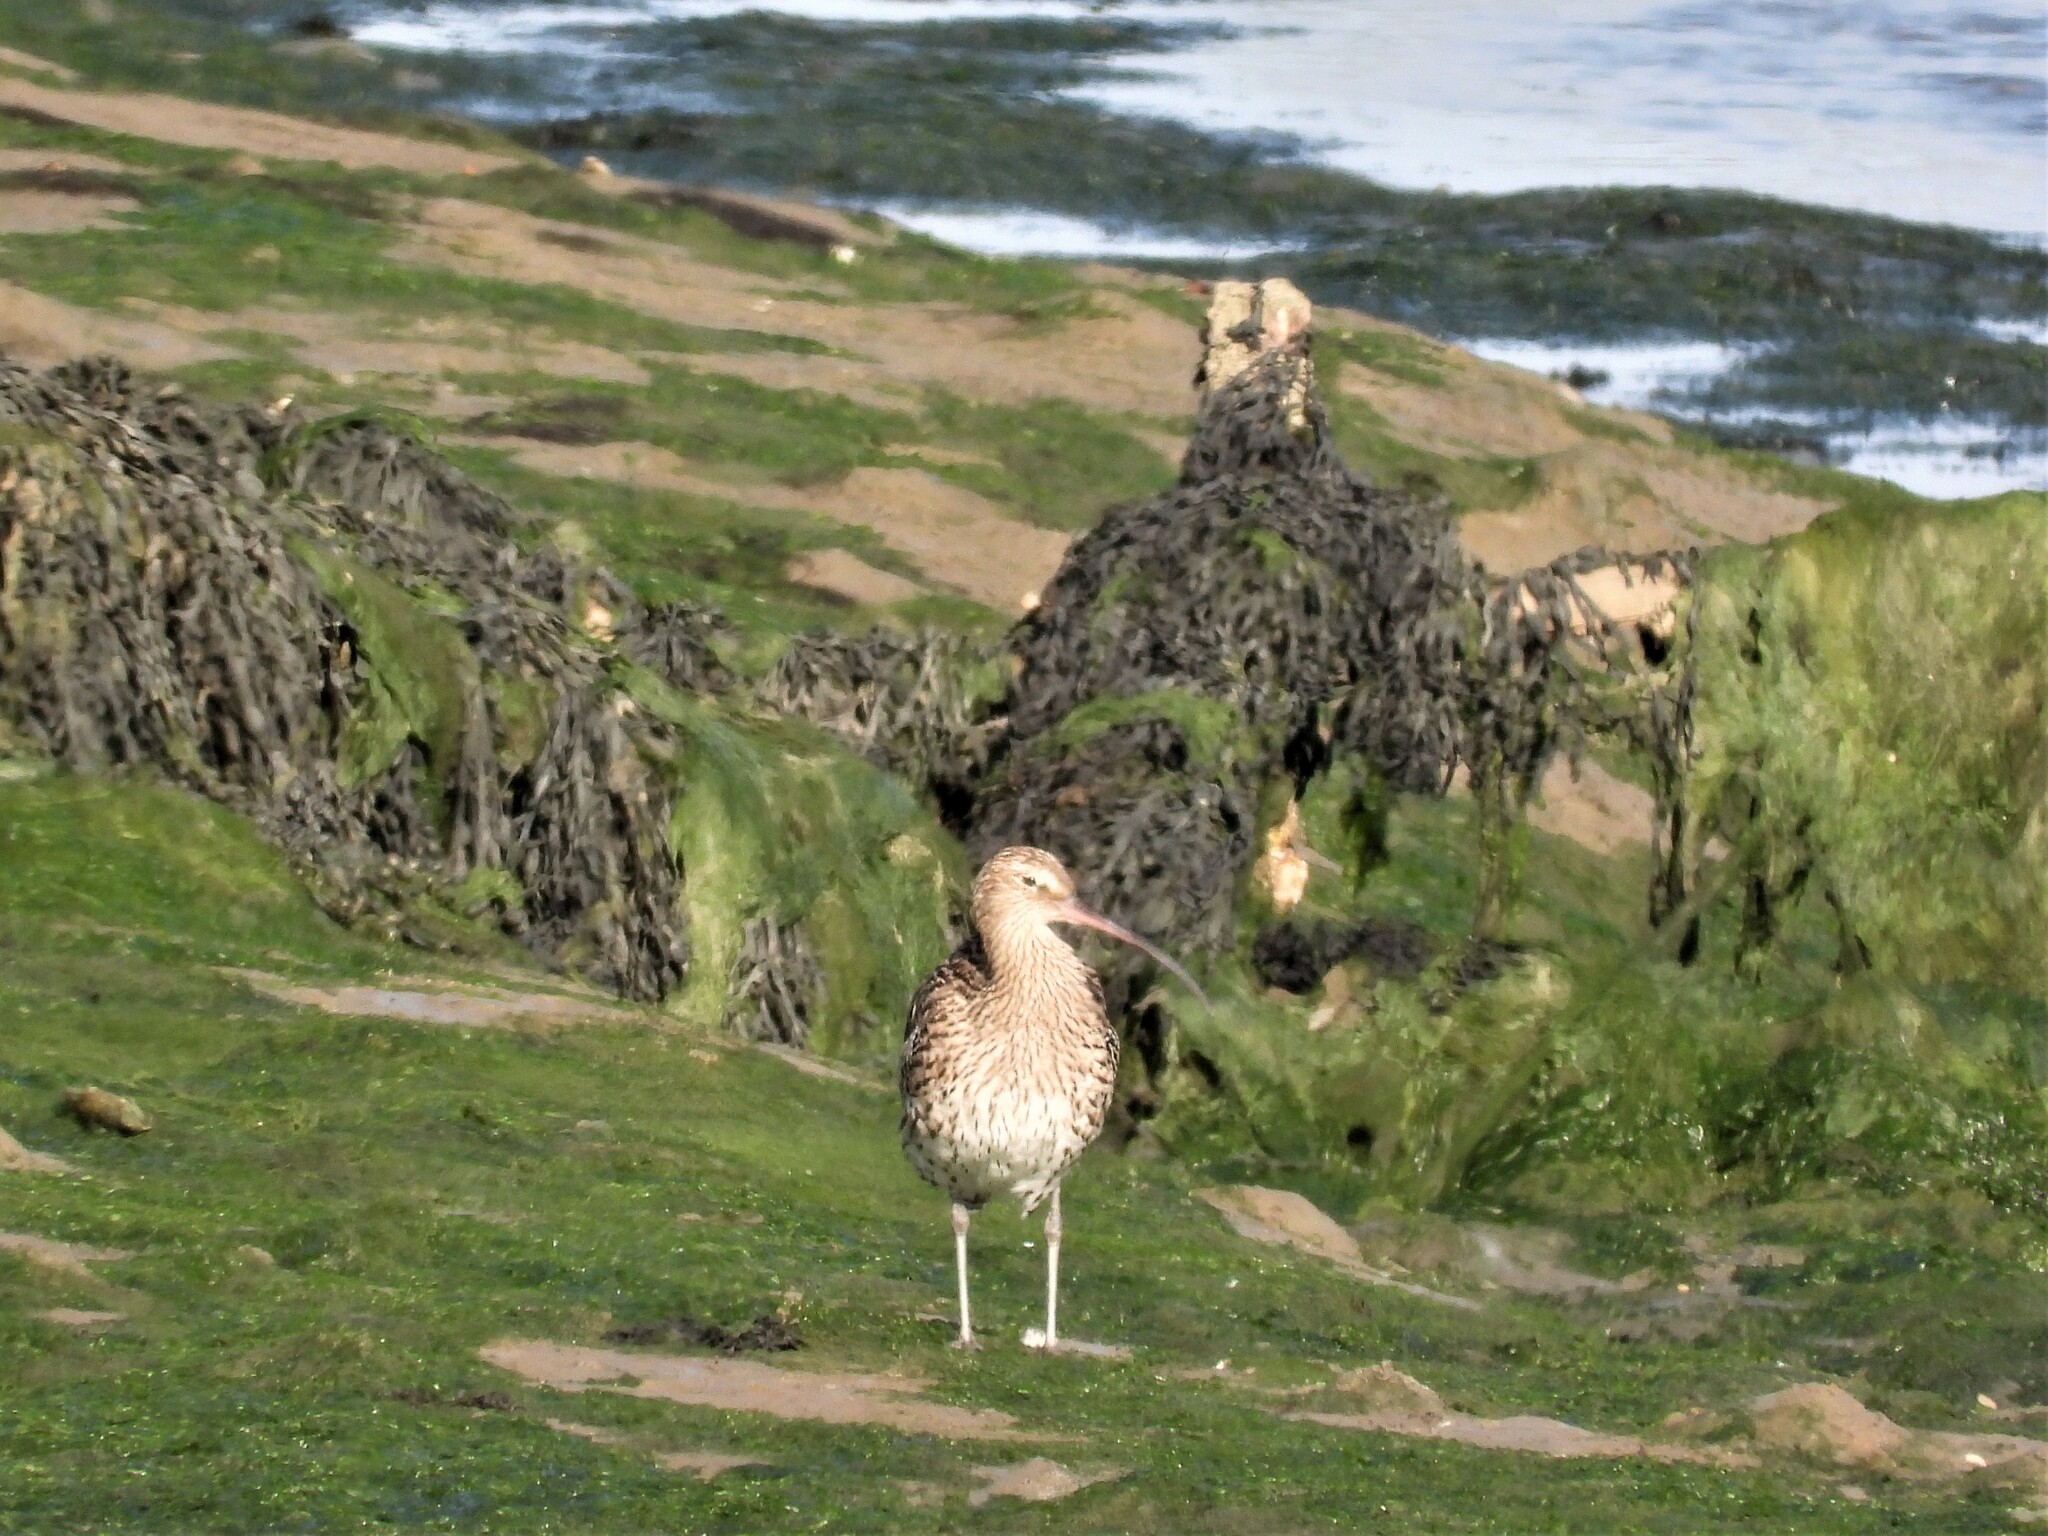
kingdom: Animalia
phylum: Chordata
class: Aves
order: Charadriiformes
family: Scolopacidae
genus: Numenius
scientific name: Numenius arquata
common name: Eurasian curlew
